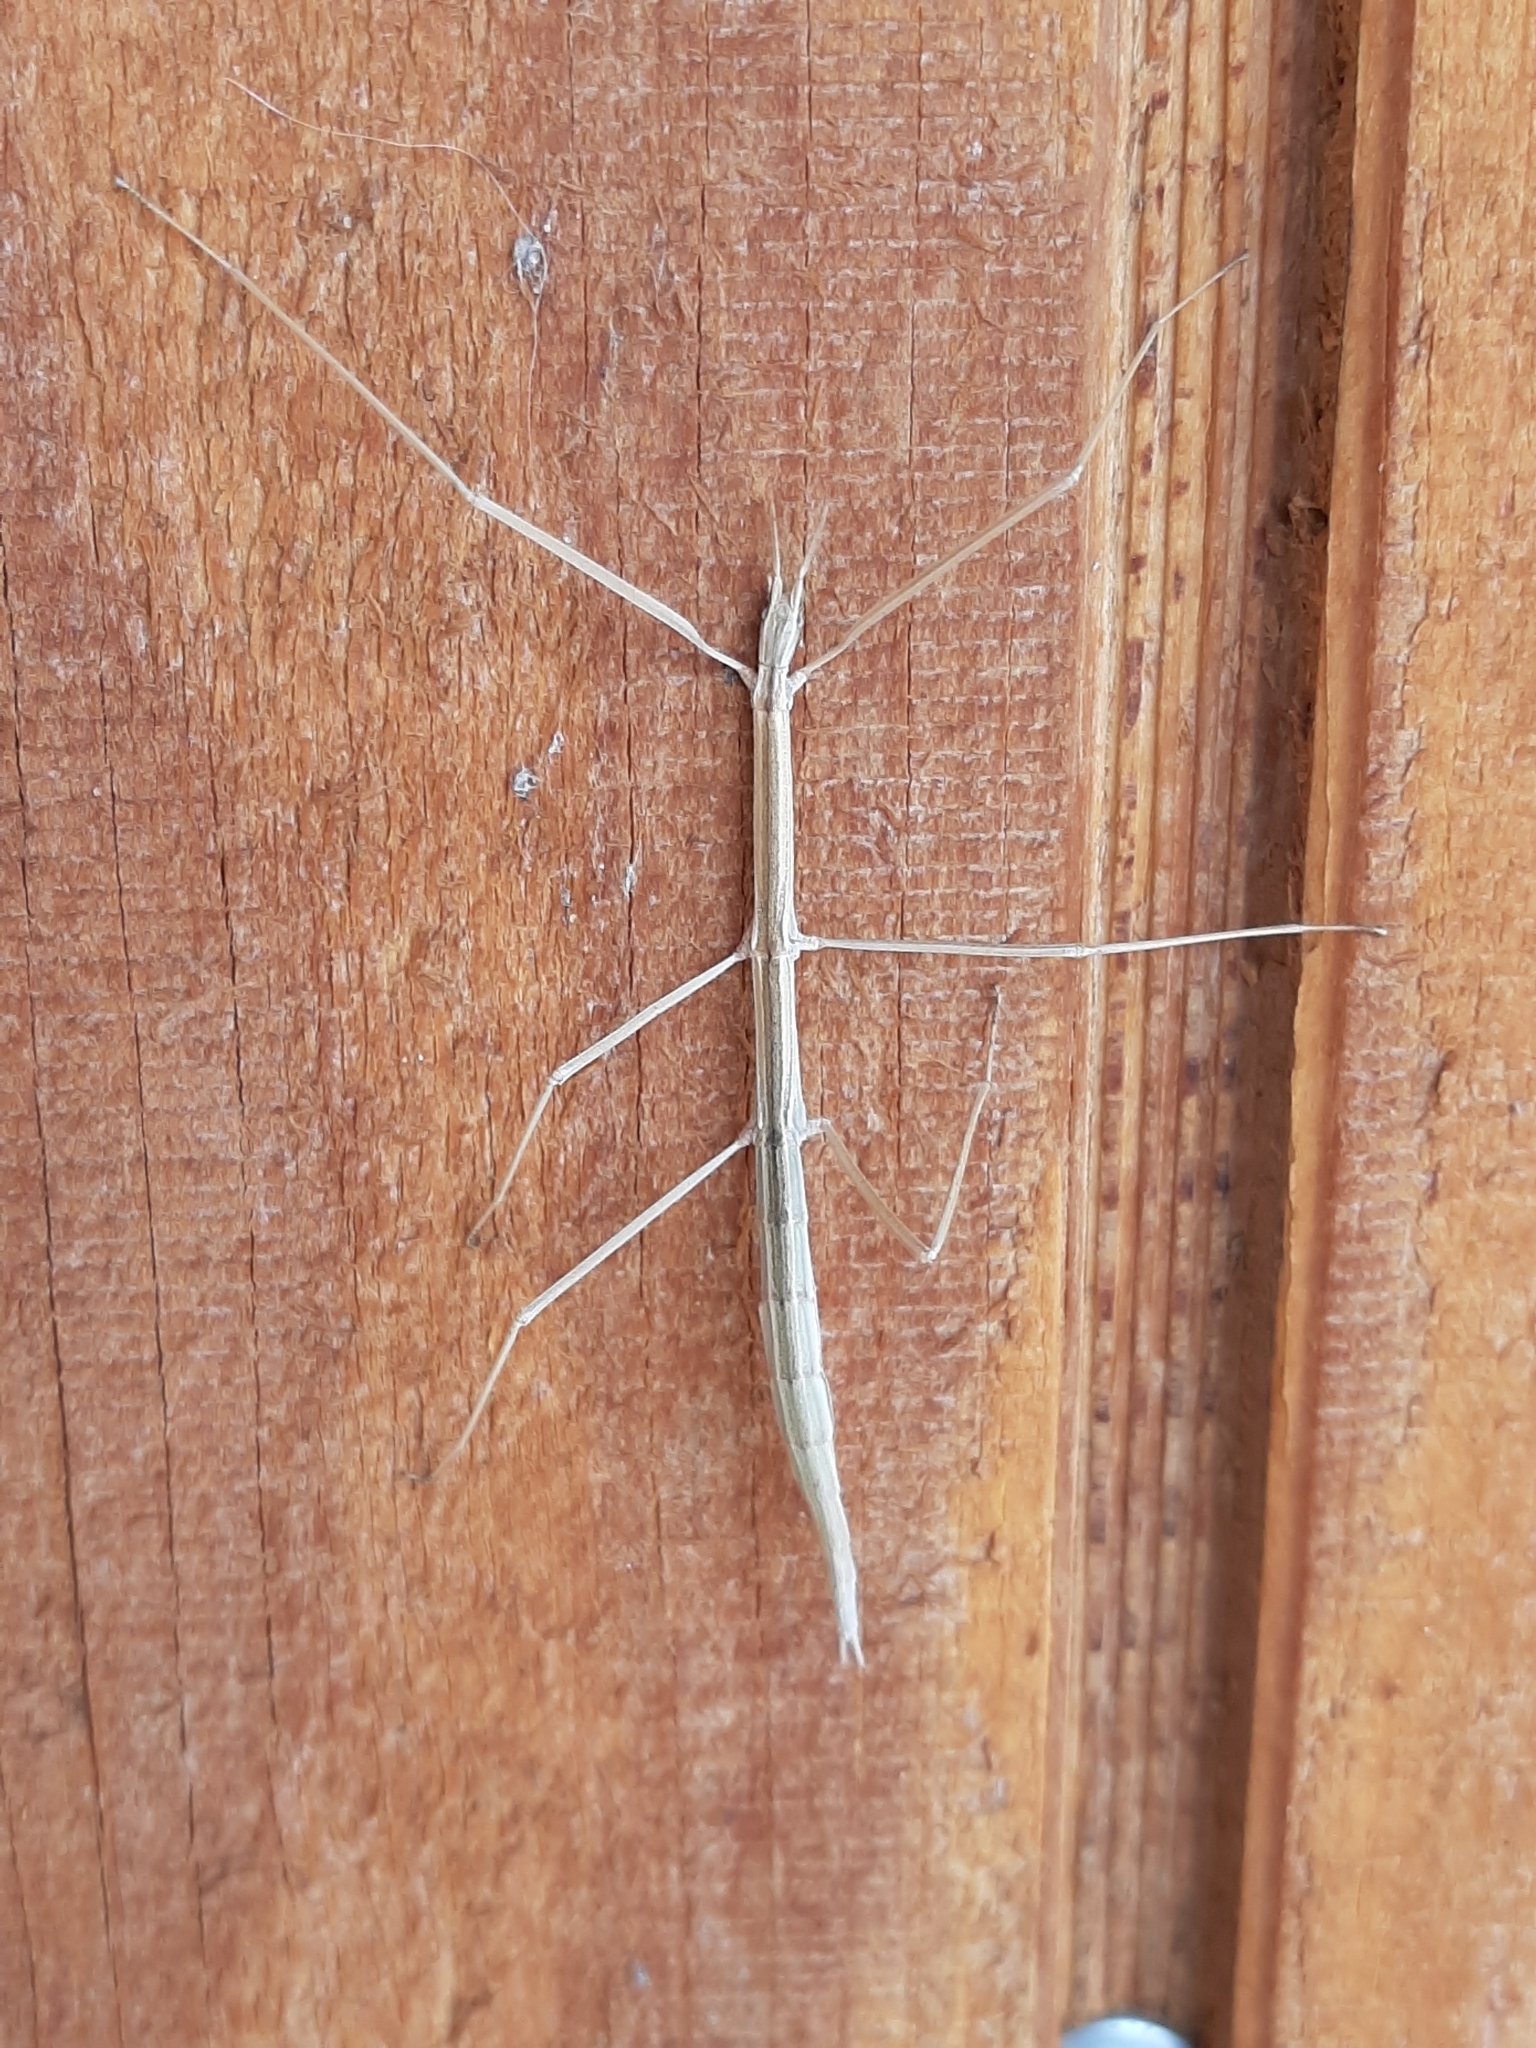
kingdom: Animalia
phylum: Arthropoda
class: Insecta
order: Phasmida
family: Heteronemiidae
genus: Parabacillus
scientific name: Parabacillus coloradus
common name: Colorado short-horned walkingstick
